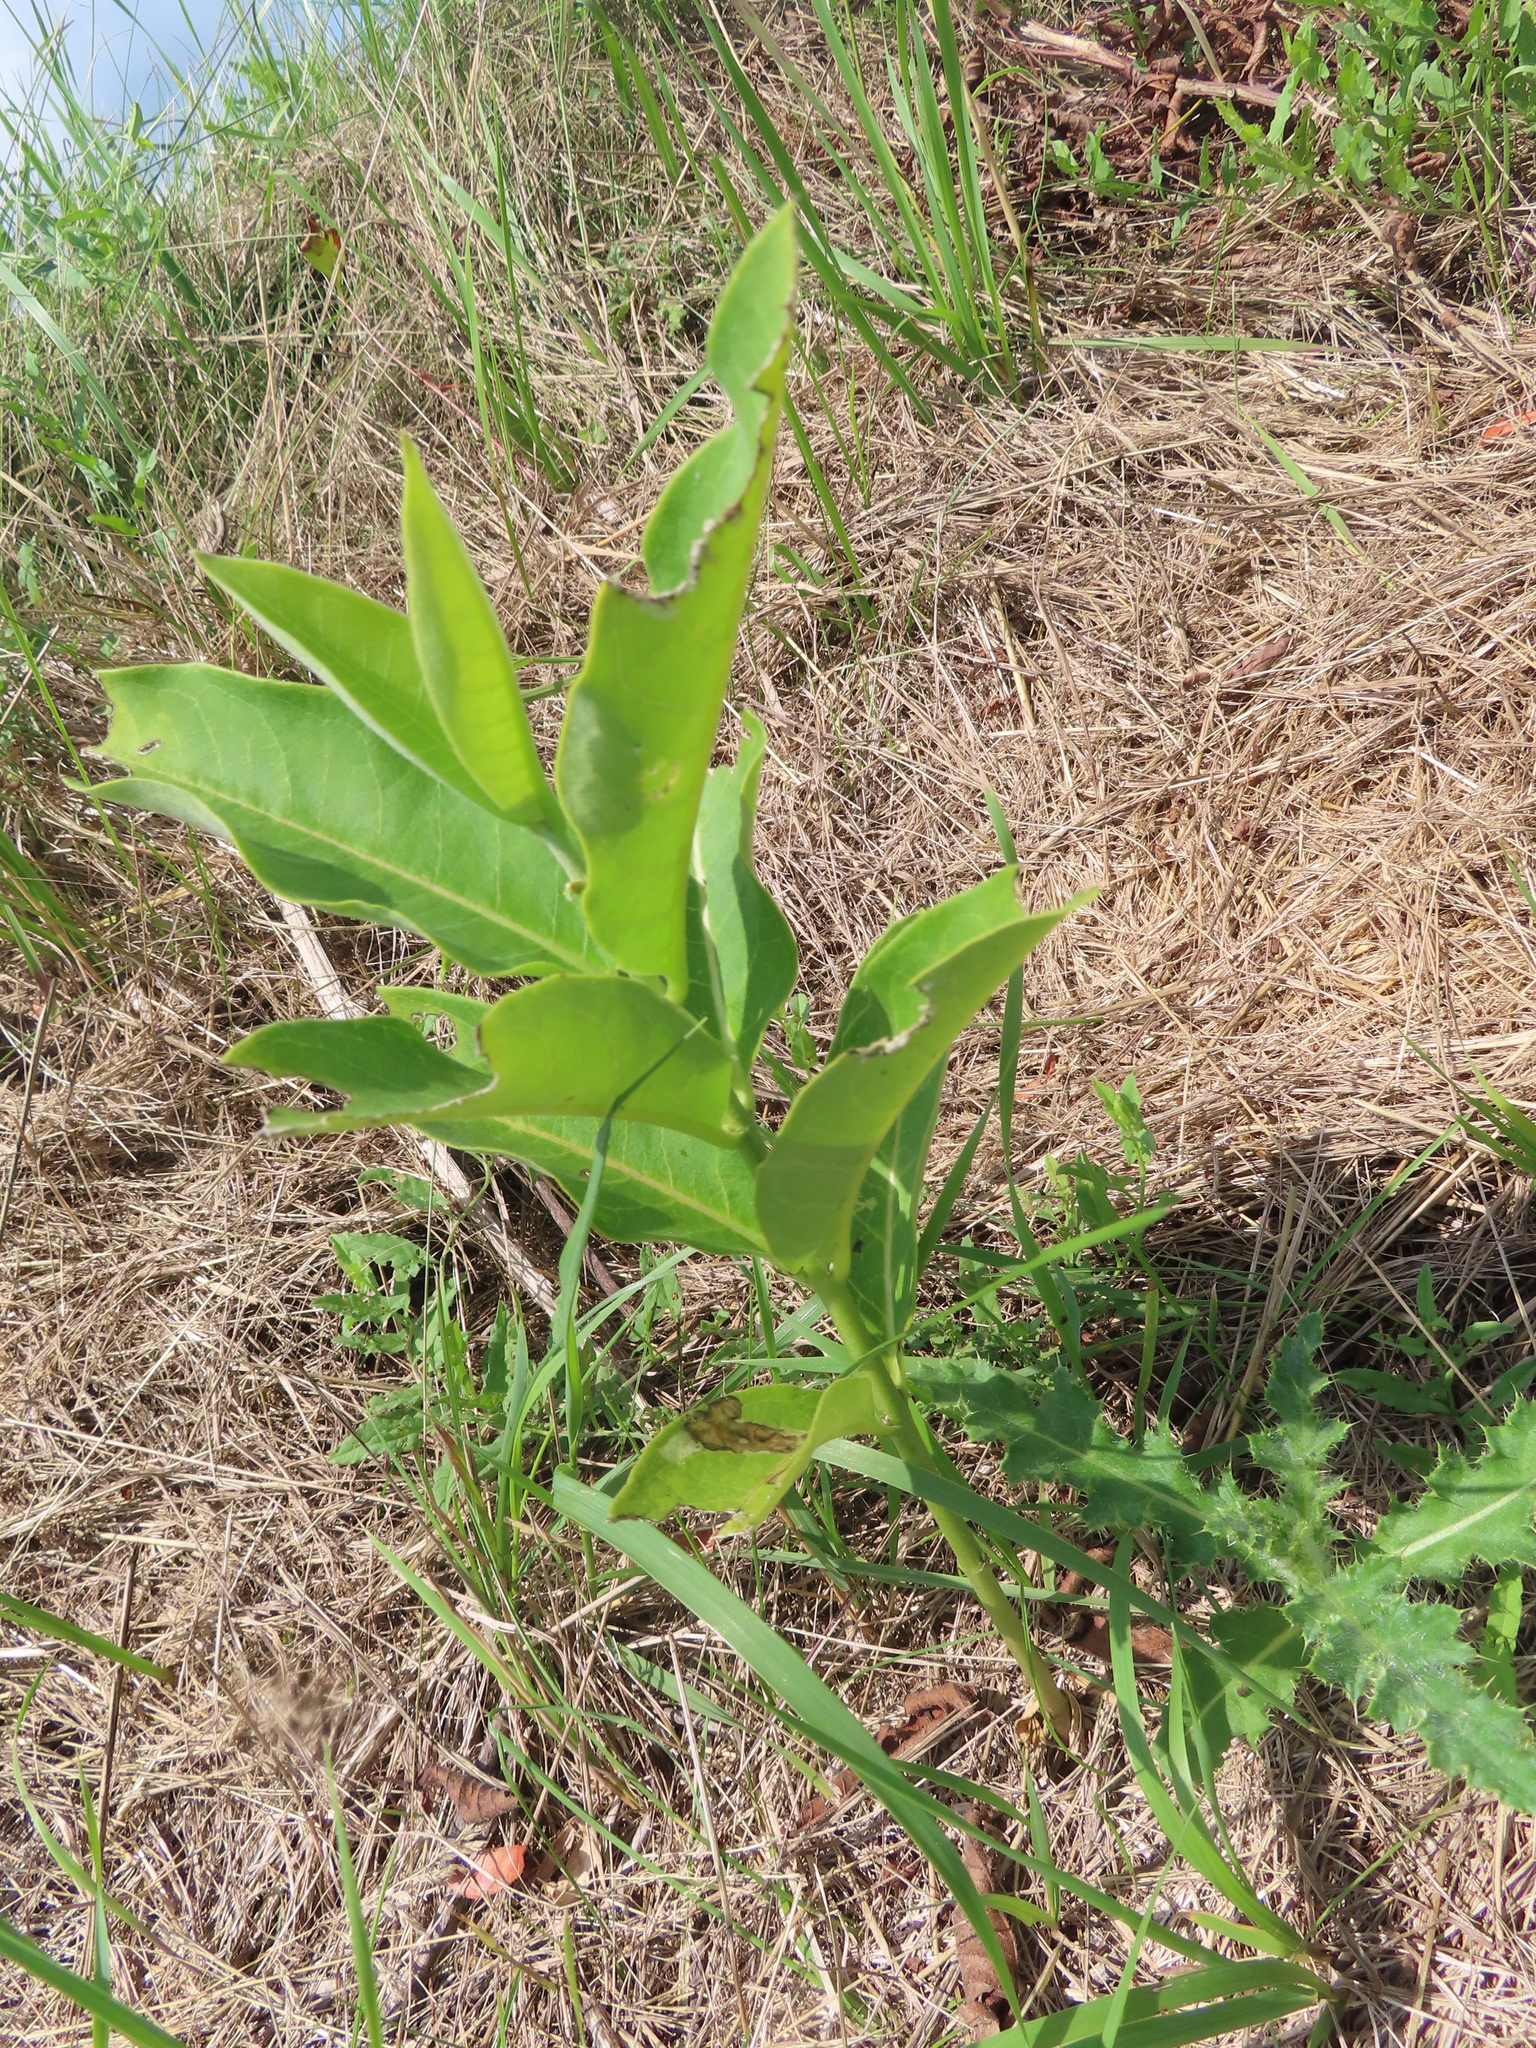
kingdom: Plantae
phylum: Tracheophyta
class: Magnoliopsida
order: Gentianales
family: Apocynaceae
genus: Asclepias
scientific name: Asclepias syriaca
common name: Common milkweed
